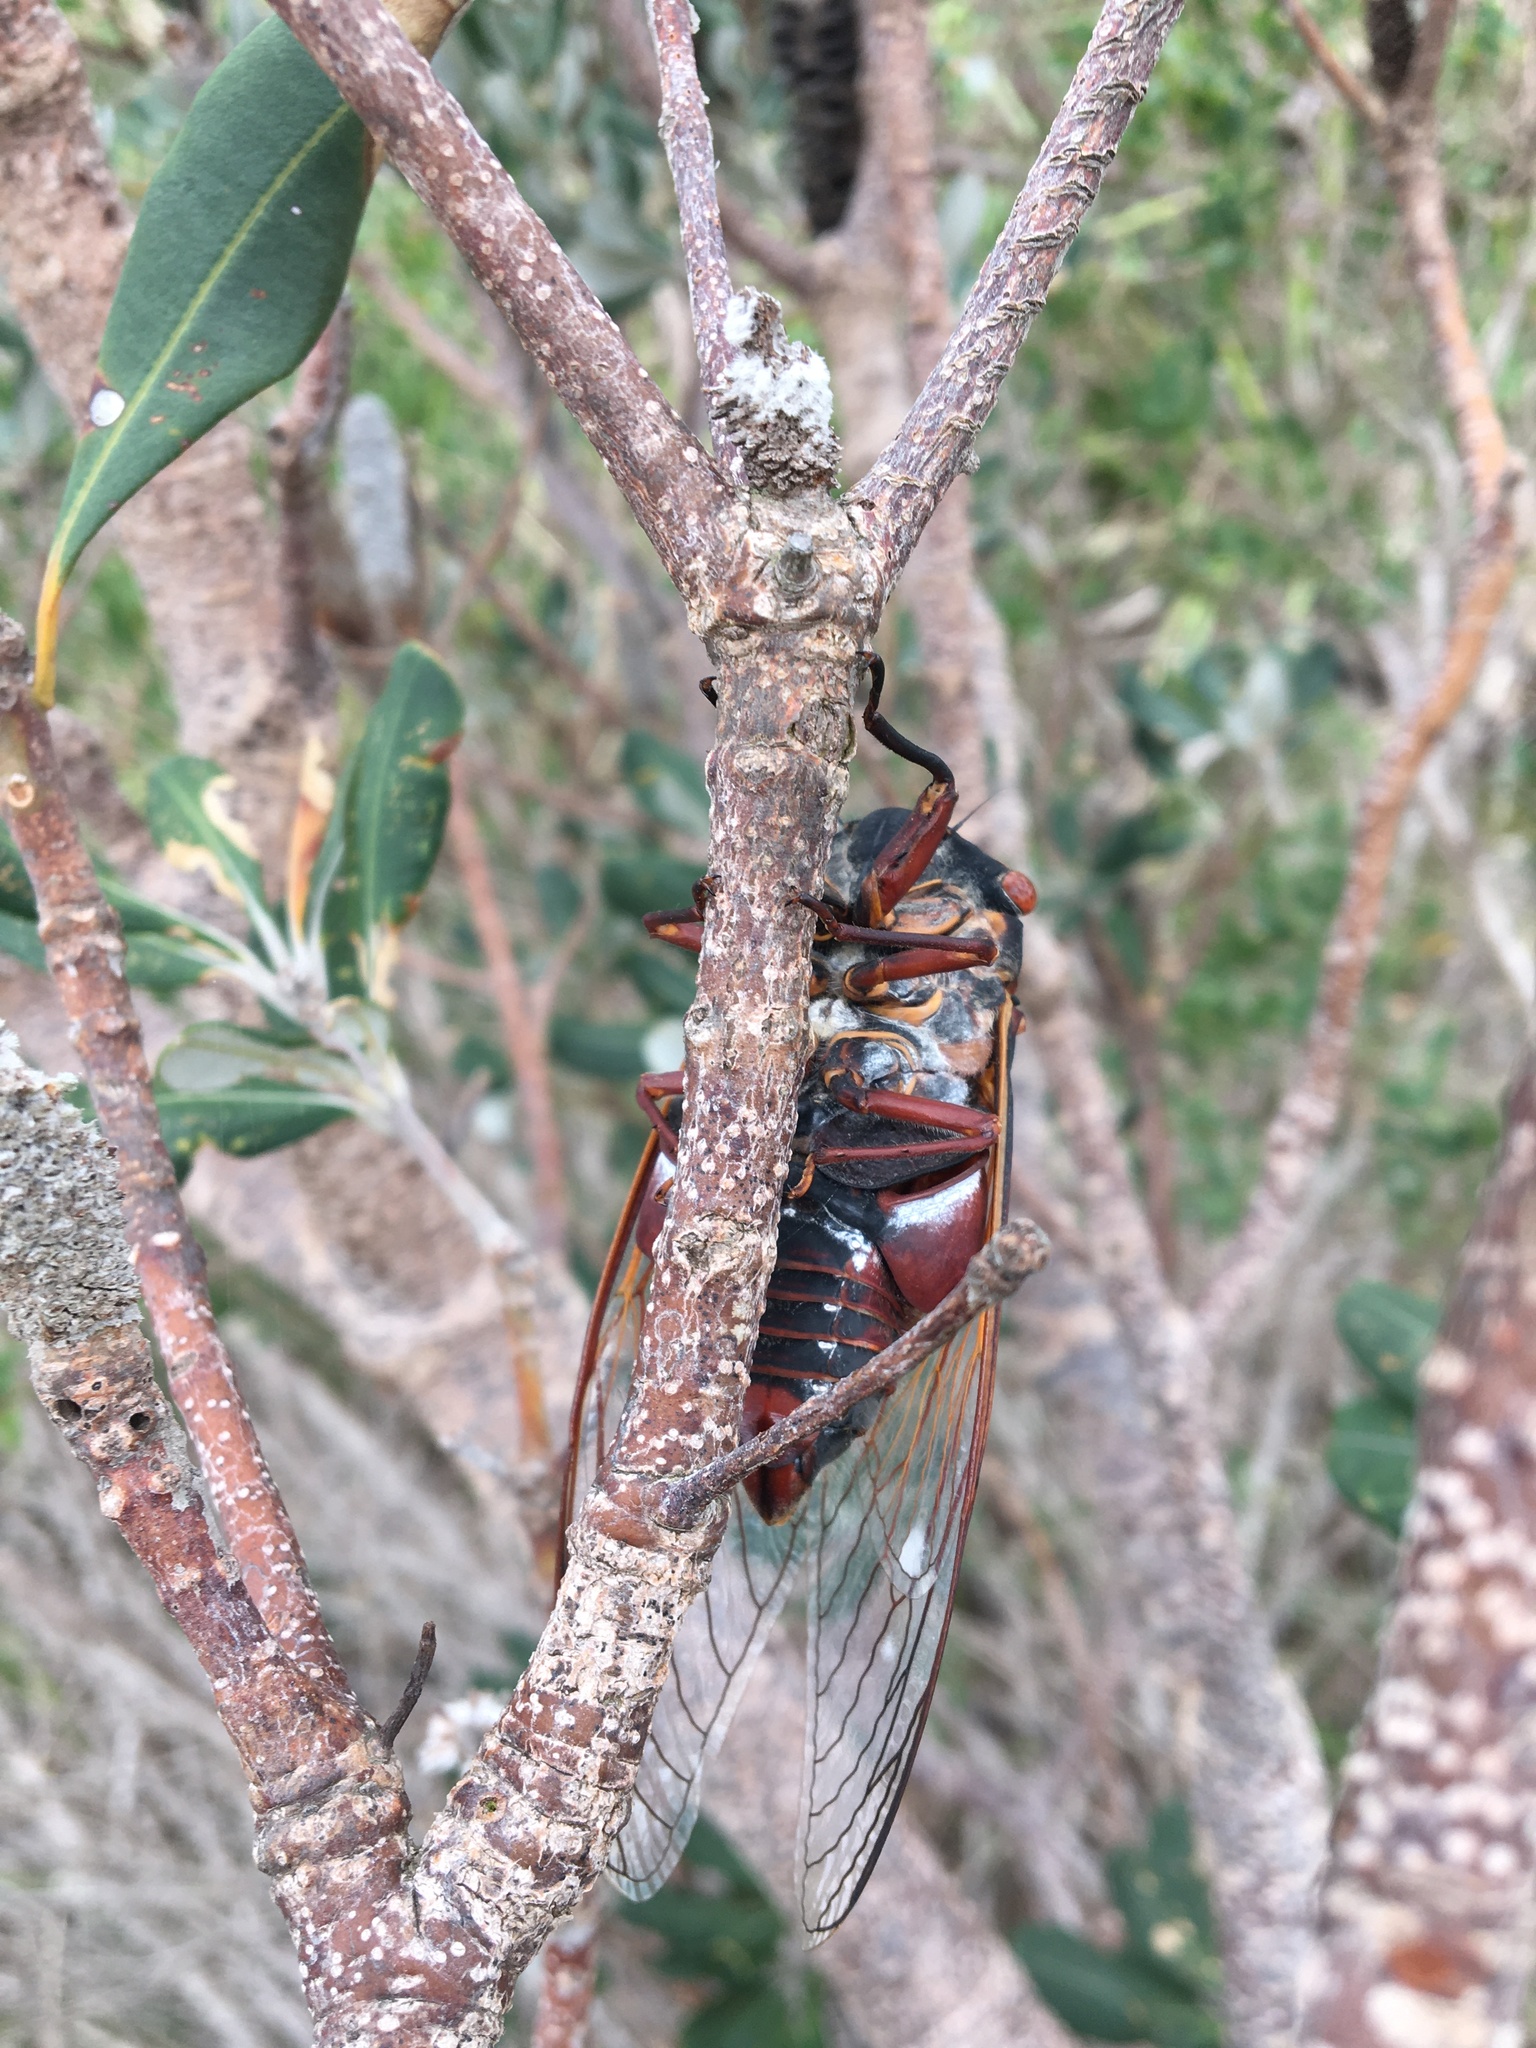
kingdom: Animalia
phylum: Arthropoda
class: Insecta
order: Hemiptera
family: Cicadidae
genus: Thopha
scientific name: Thopha saccata
